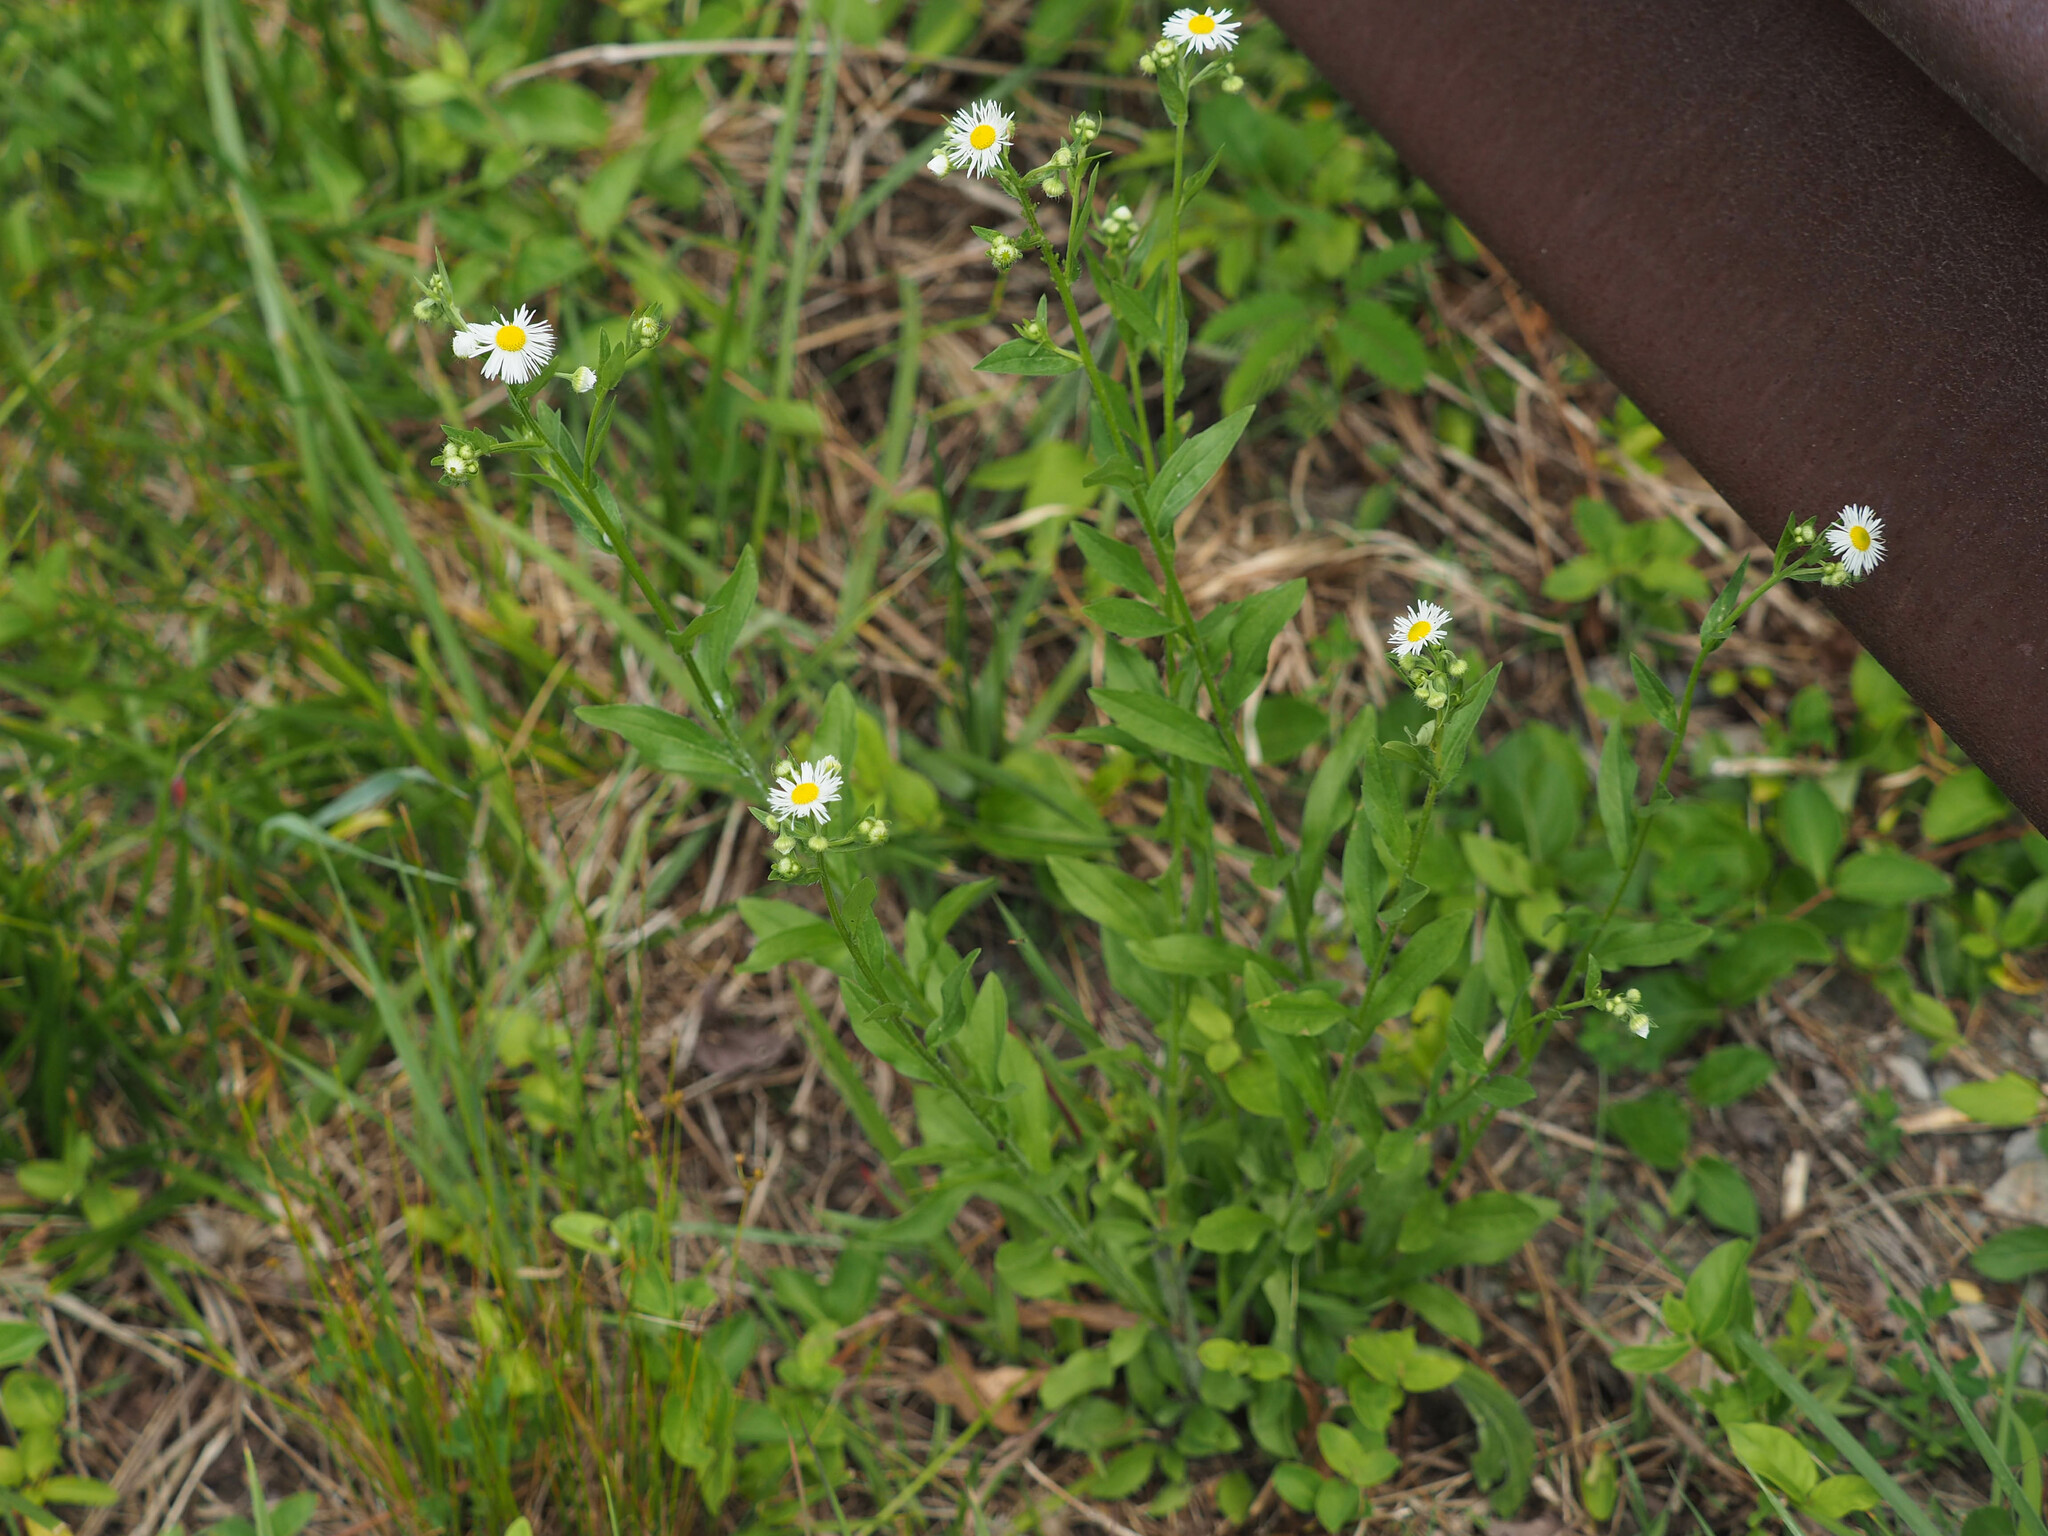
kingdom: Plantae
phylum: Tracheophyta
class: Magnoliopsida
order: Asterales
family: Asteraceae
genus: Erigeron
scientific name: Erigeron annuus
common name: Tall fleabane
